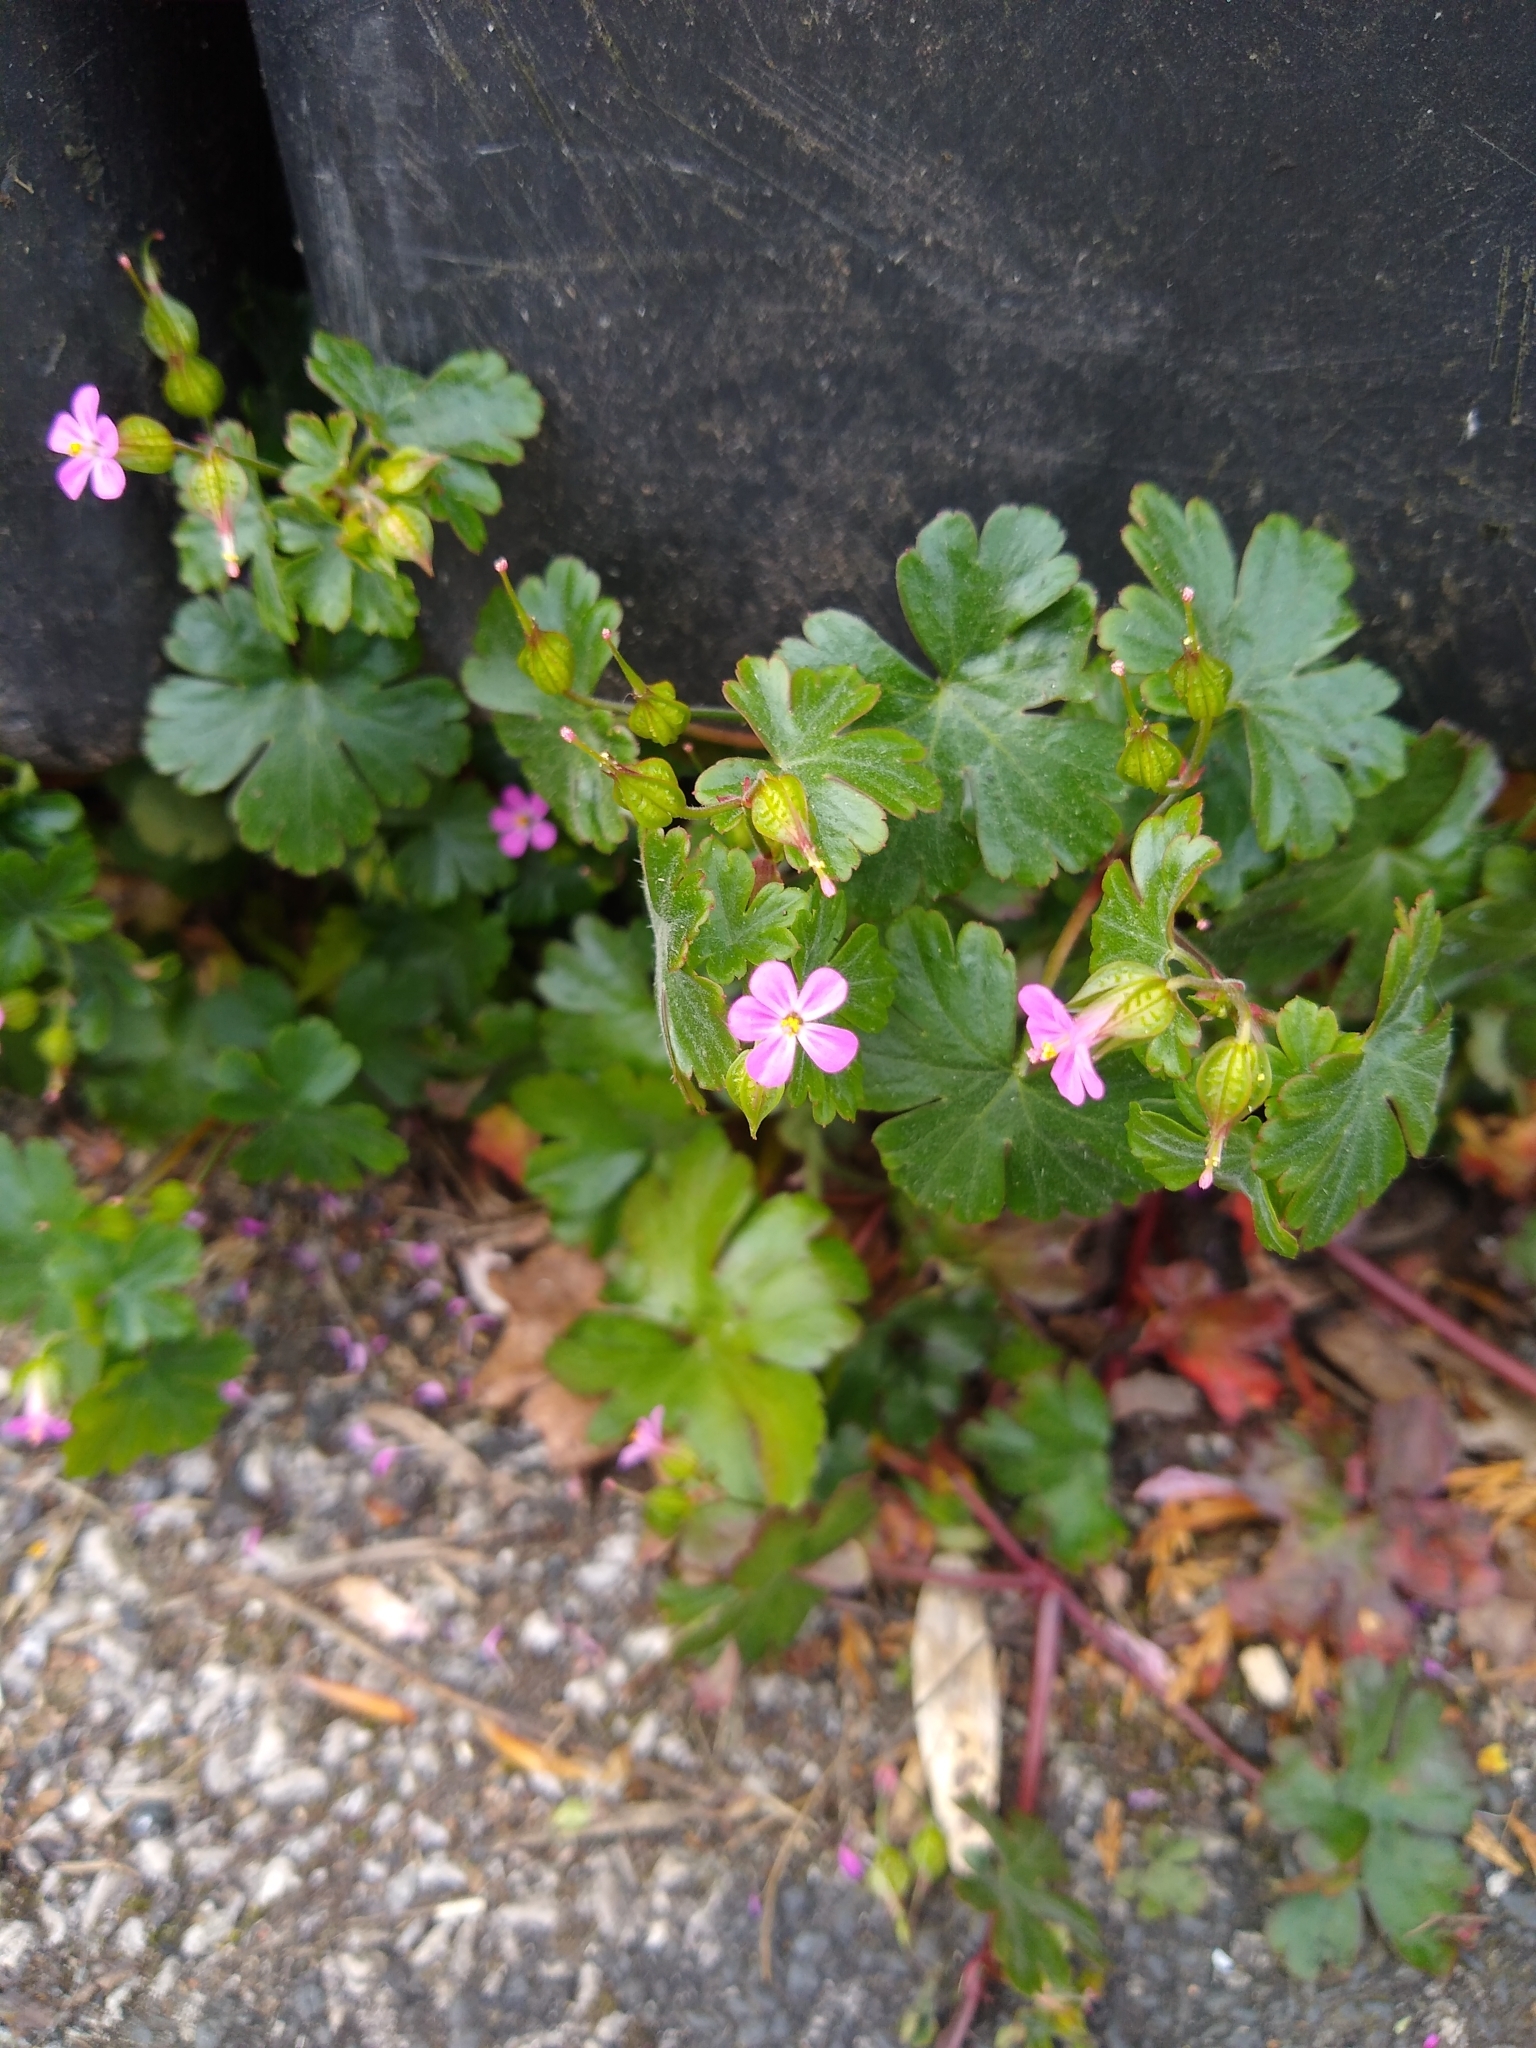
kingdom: Plantae
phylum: Tracheophyta
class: Magnoliopsida
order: Geraniales
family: Geraniaceae
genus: Geranium
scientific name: Geranium lucidum
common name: Shining crane's-bill
